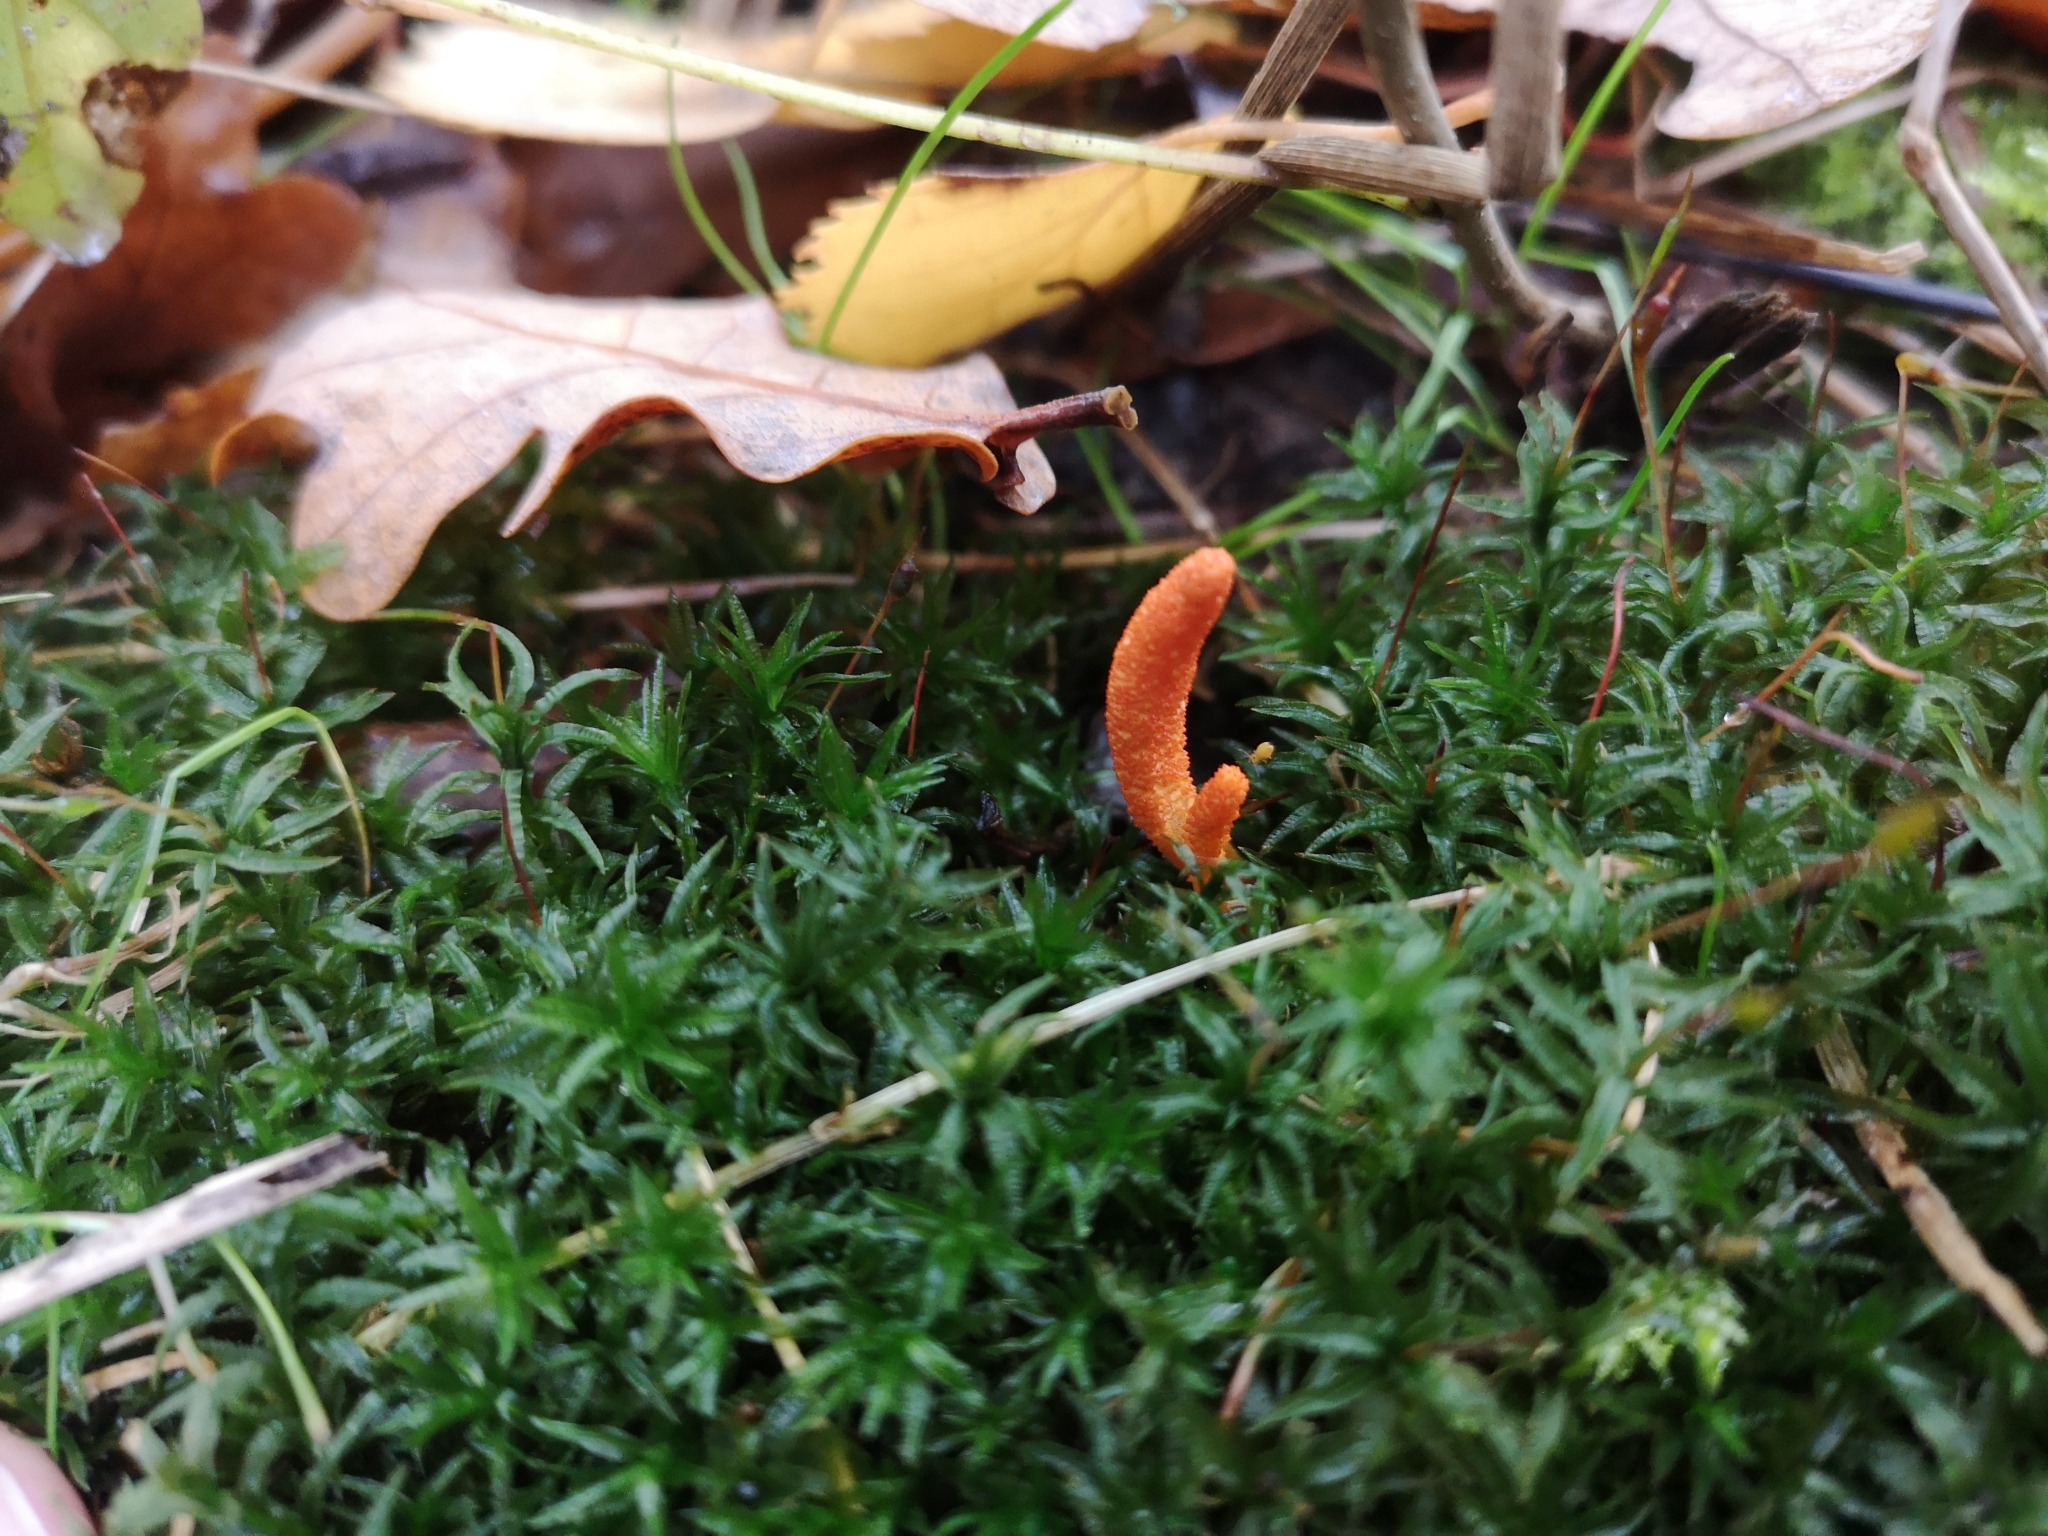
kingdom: Fungi
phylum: Ascomycota
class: Sordariomycetes
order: Hypocreales
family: Cordycipitaceae
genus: Cordyceps
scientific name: Cordyceps militaris
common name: Scarlet caterpillar fungus
